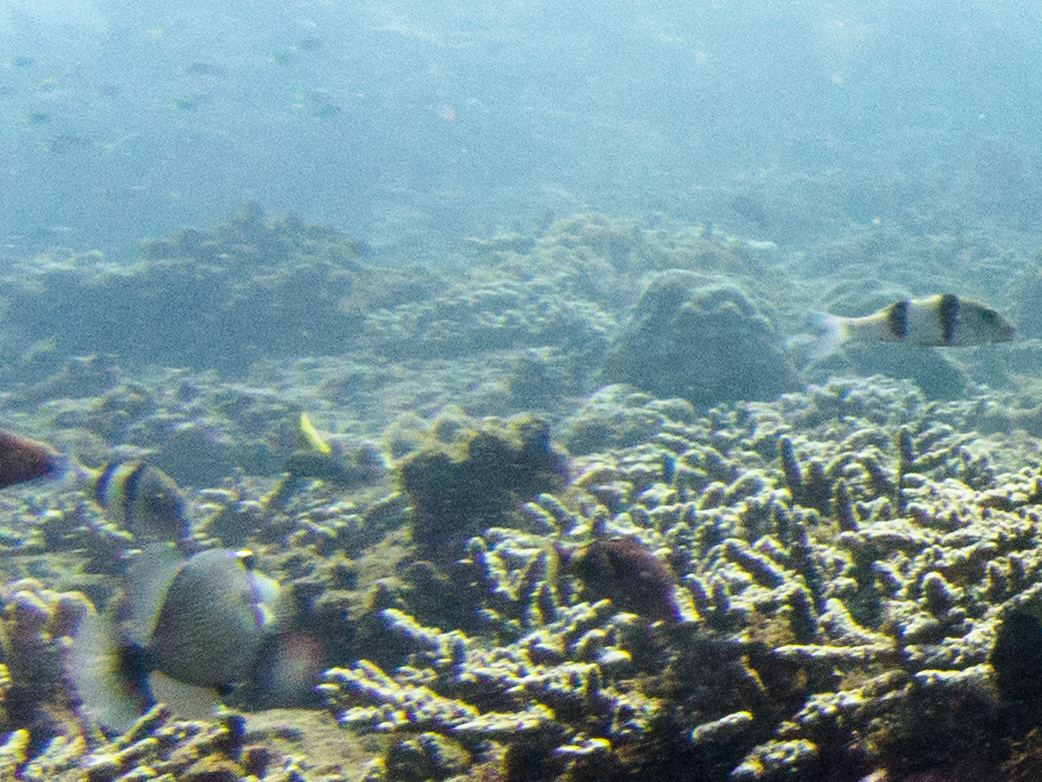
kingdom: Animalia
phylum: Chordata
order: Perciformes
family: Mullidae
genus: Parupeneus
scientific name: Parupeneus trifasciatus
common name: Doublebar goatfish
